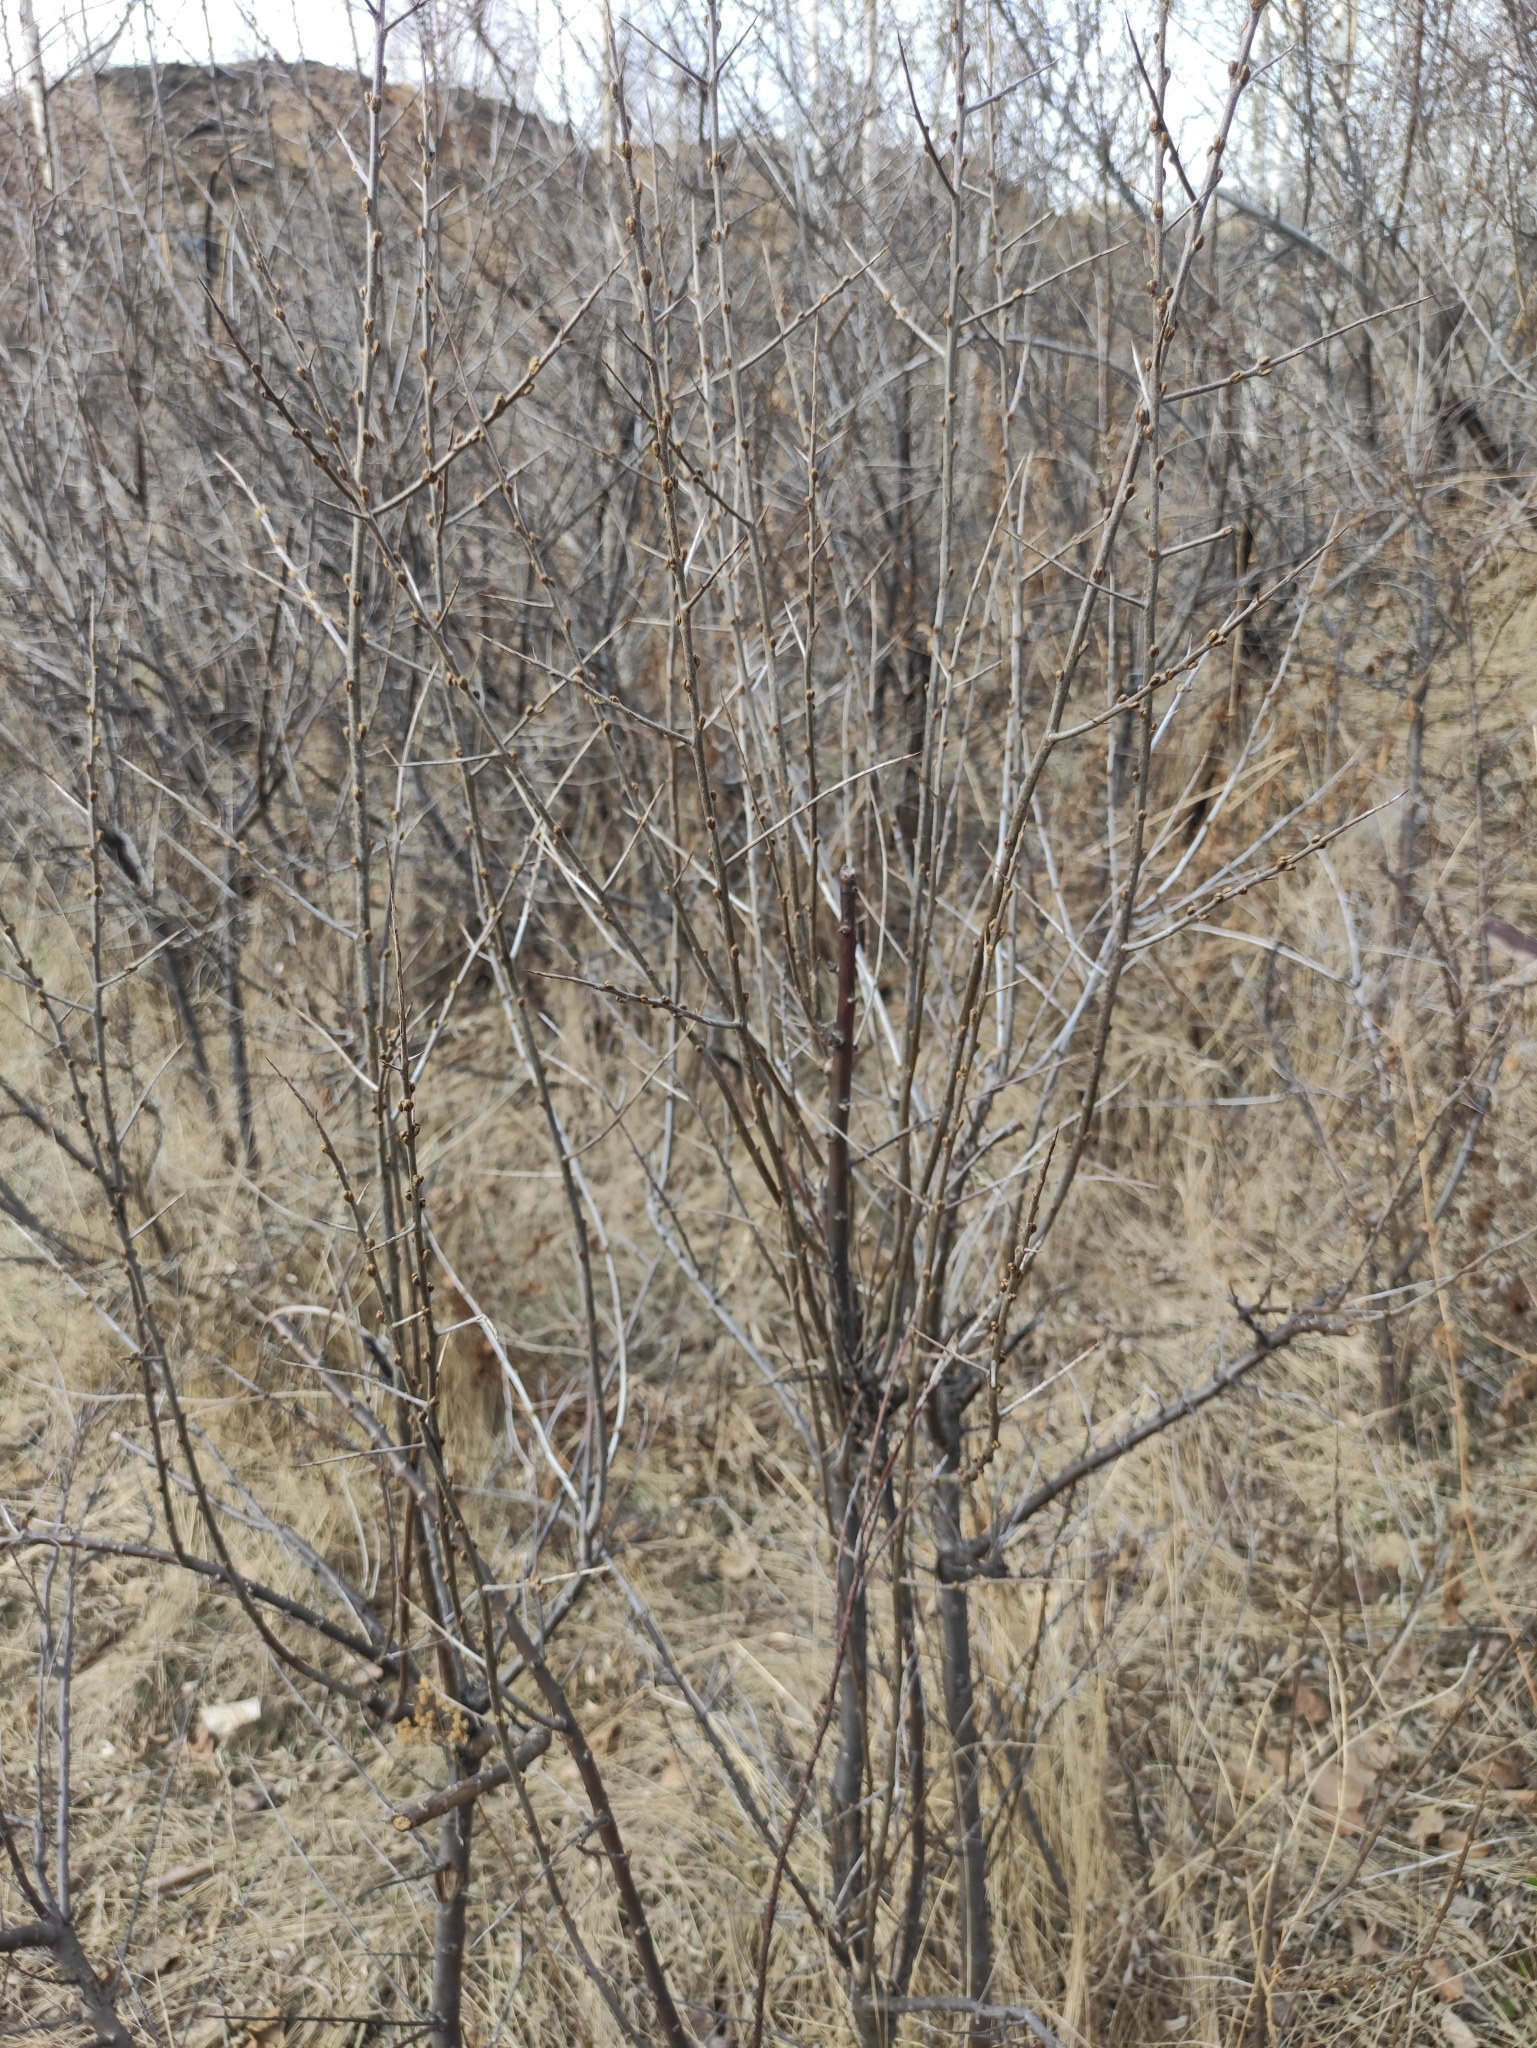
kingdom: Plantae
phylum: Tracheophyta
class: Magnoliopsida
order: Rosales
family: Elaeagnaceae
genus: Hippophae
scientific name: Hippophae rhamnoides
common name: Sea-buckthorn
